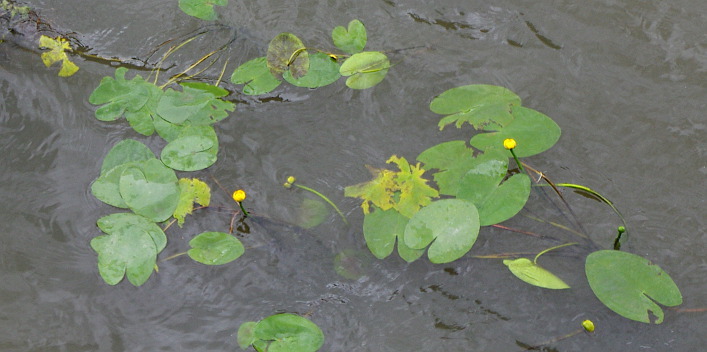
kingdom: Plantae
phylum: Tracheophyta
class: Magnoliopsida
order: Nymphaeales
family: Nymphaeaceae
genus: Nuphar
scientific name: Nuphar lutea
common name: Yellow water-lily
